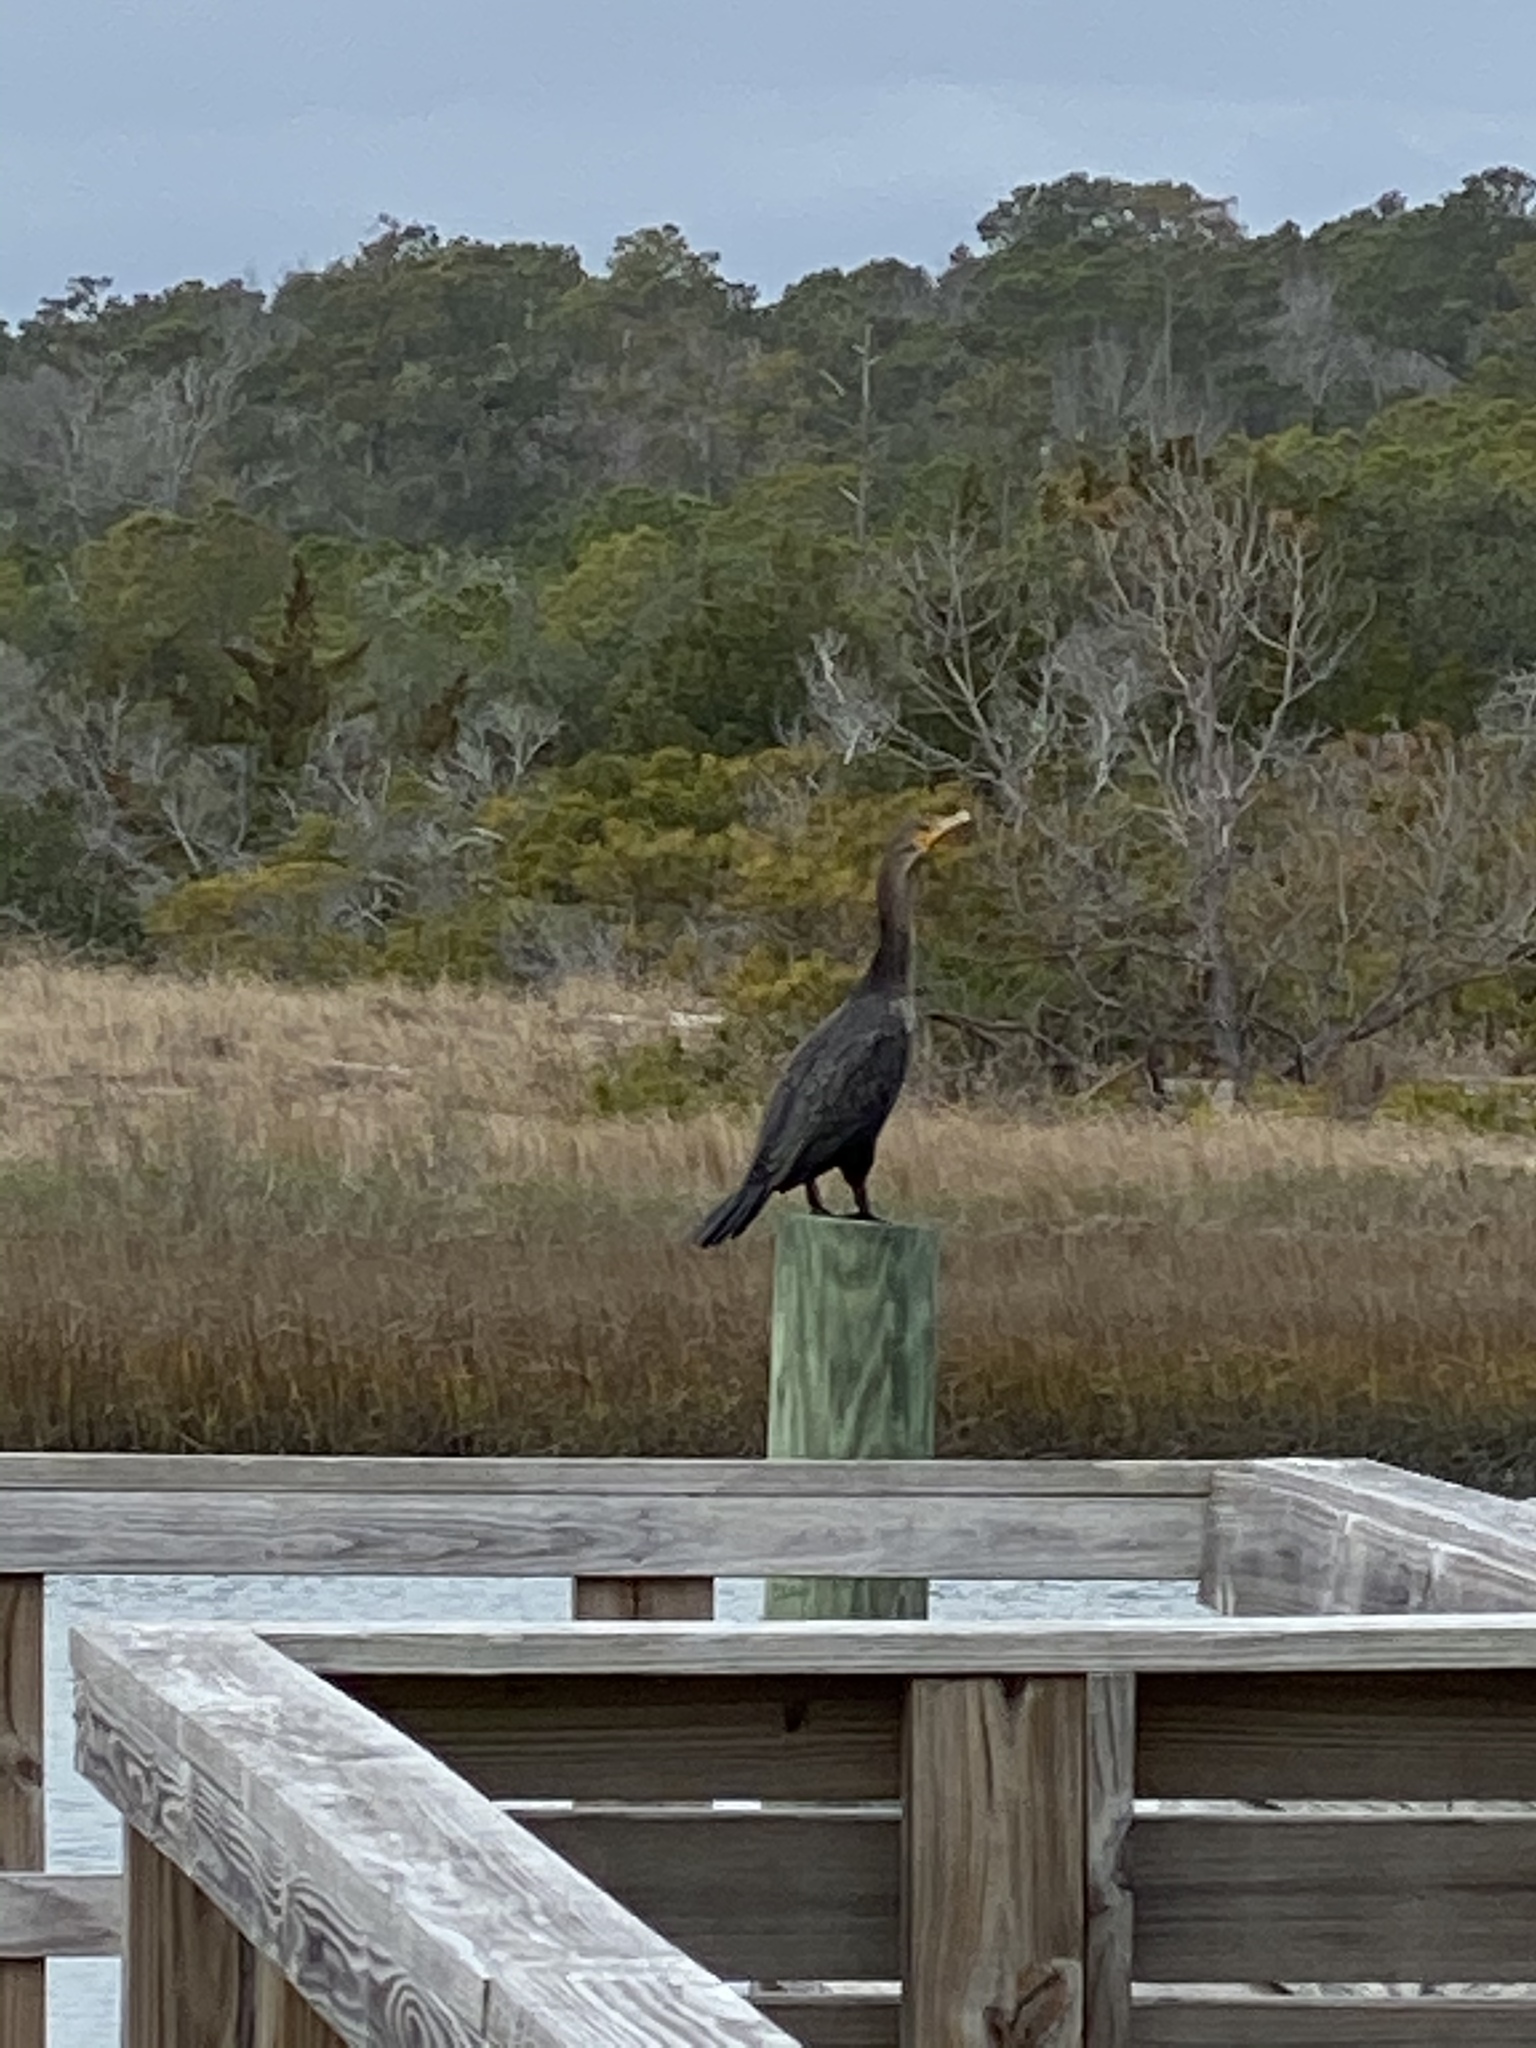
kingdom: Animalia
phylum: Chordata
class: Aves
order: Suliformes
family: Phalacrocoracidae
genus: Phalacrocorax
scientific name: Phalacrocorax auritus
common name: Double-crested cormorant
